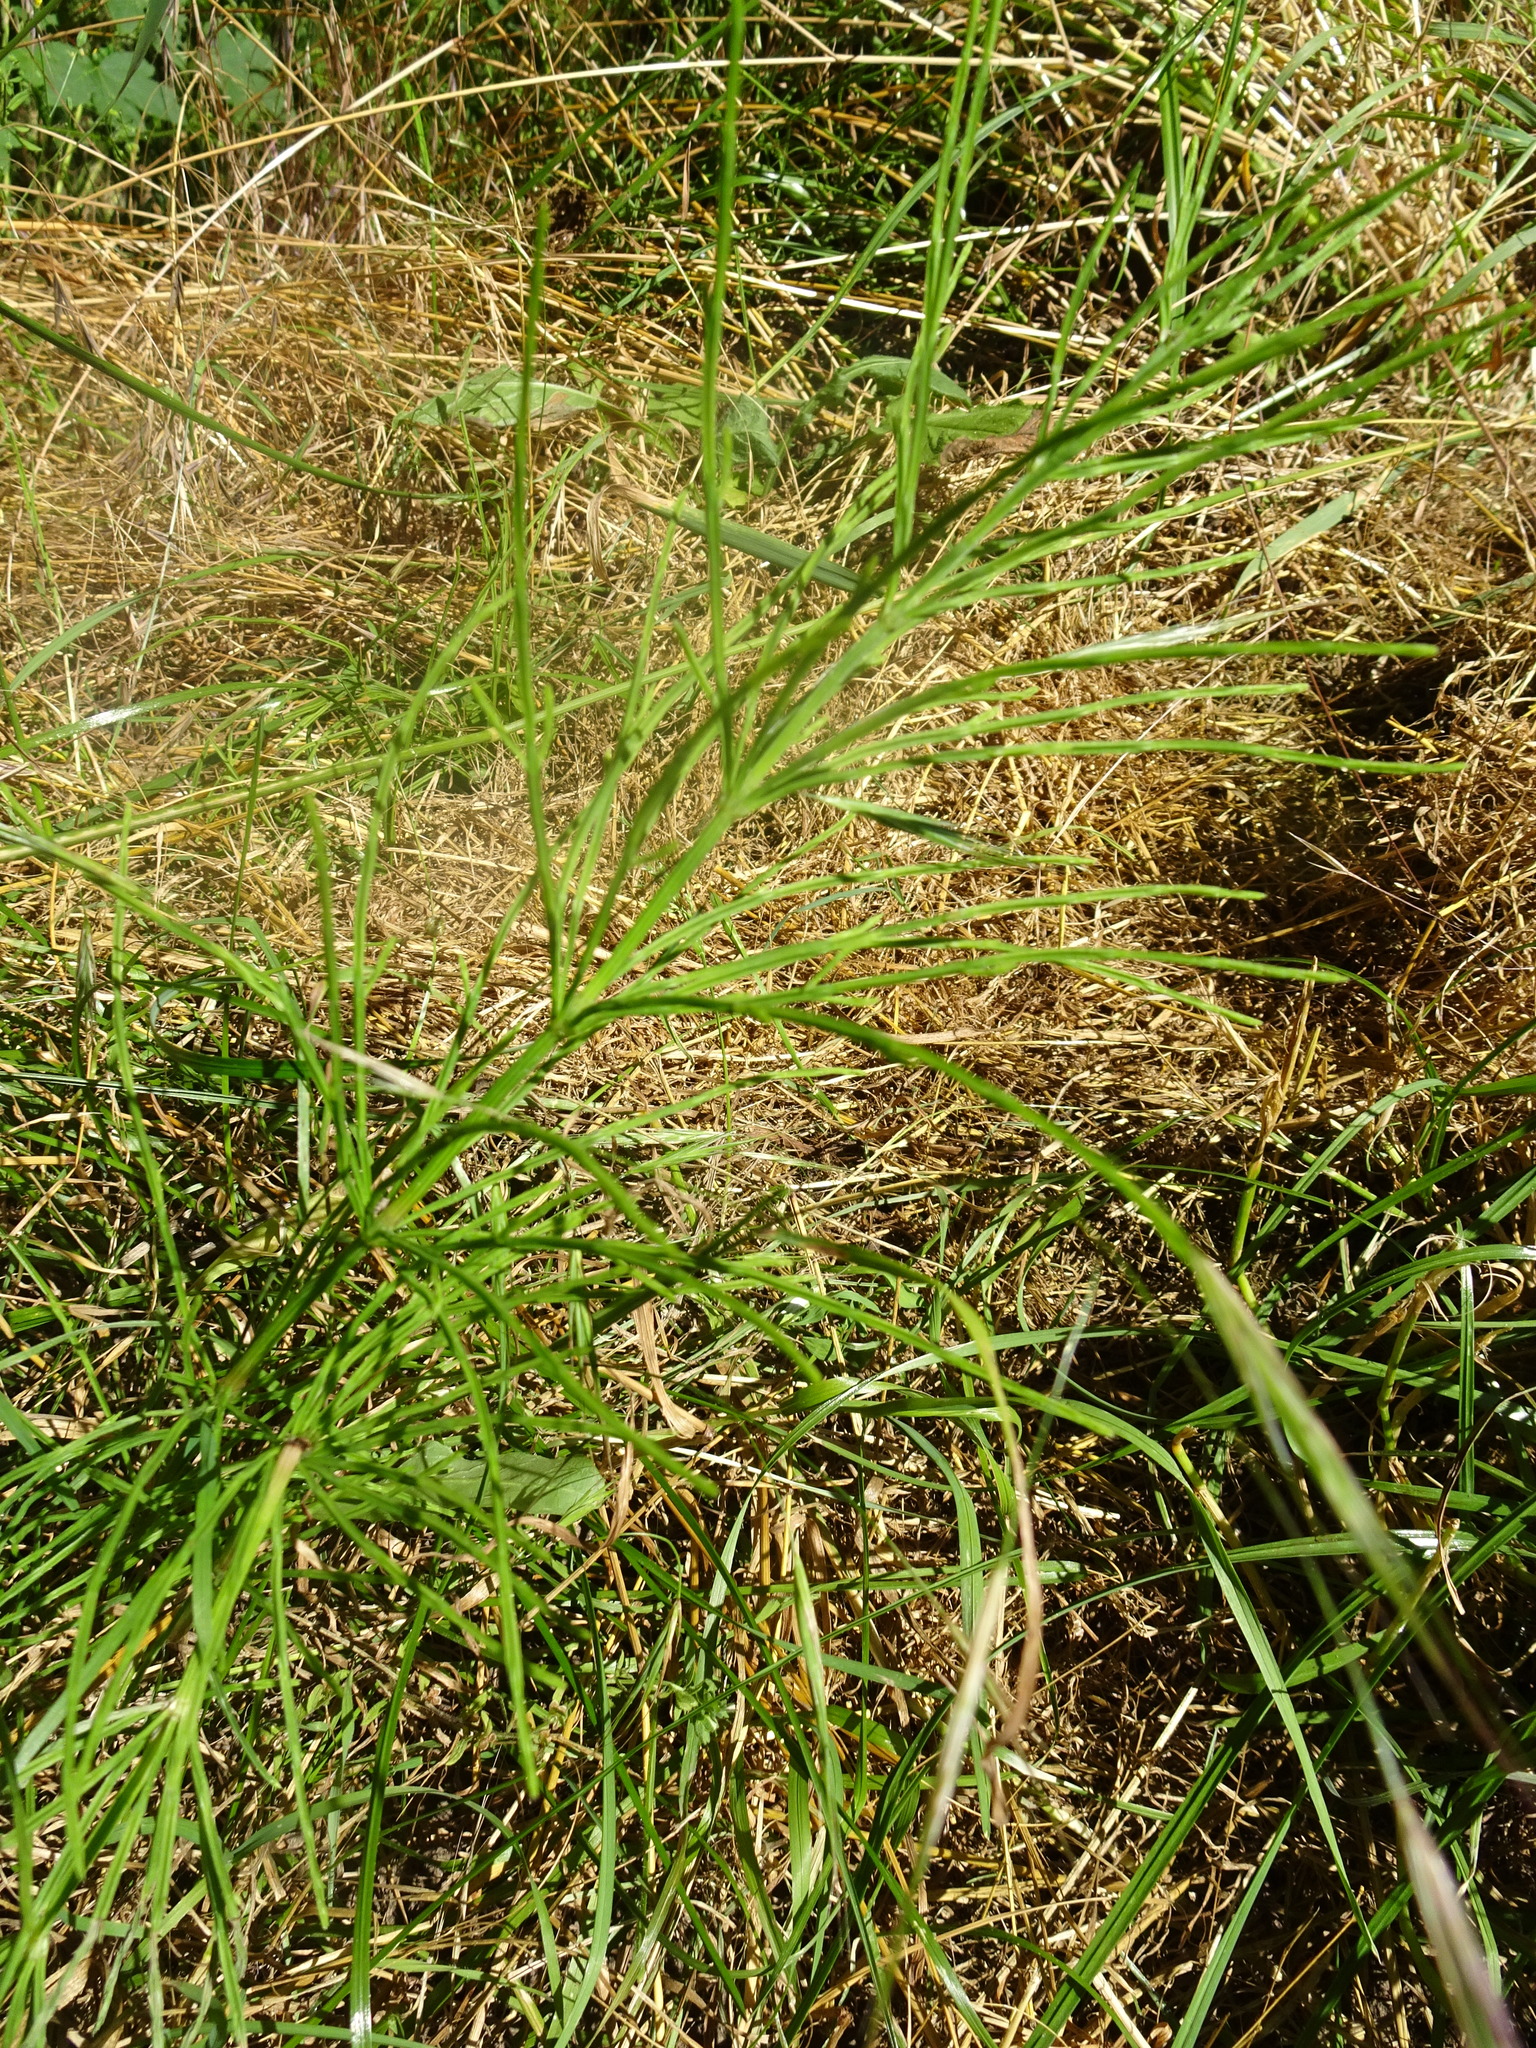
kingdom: Plantae
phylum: Tracheophyta
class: Polypodiopsida
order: Equisetales
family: Equisetaceae
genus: Equisetum
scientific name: Equisetum arvense
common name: Field horsetail
